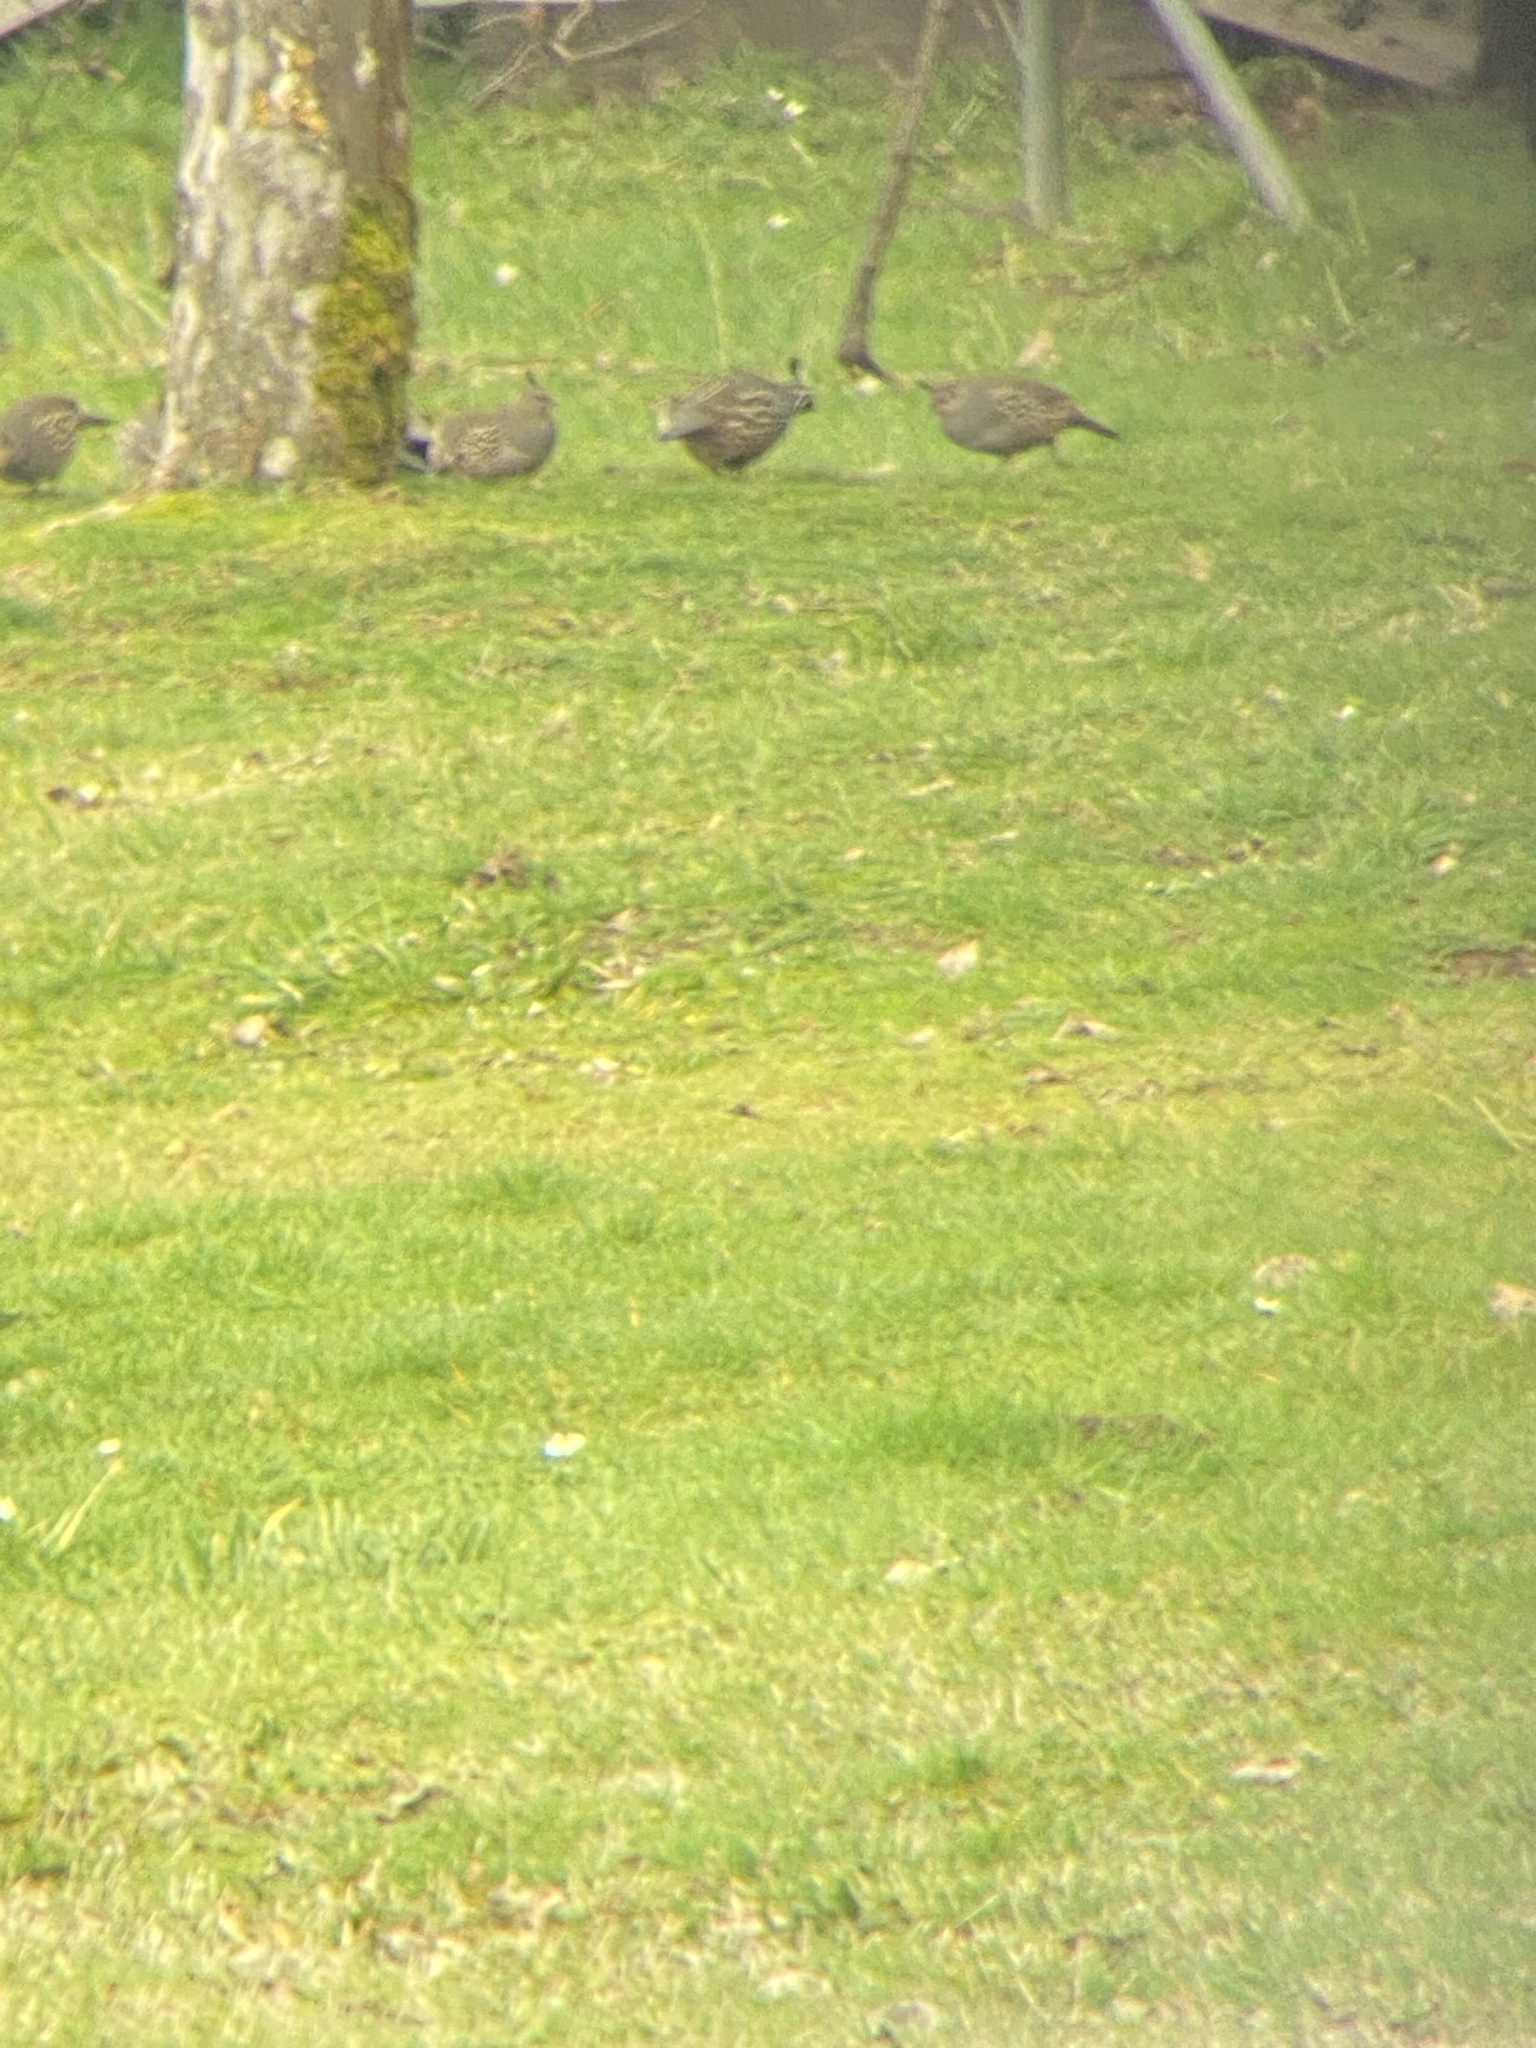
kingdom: Animalia
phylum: Chordata
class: Aves
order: Galliformes
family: Odontophoridae
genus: Callipepla
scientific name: Callipepla californica
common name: California quail
